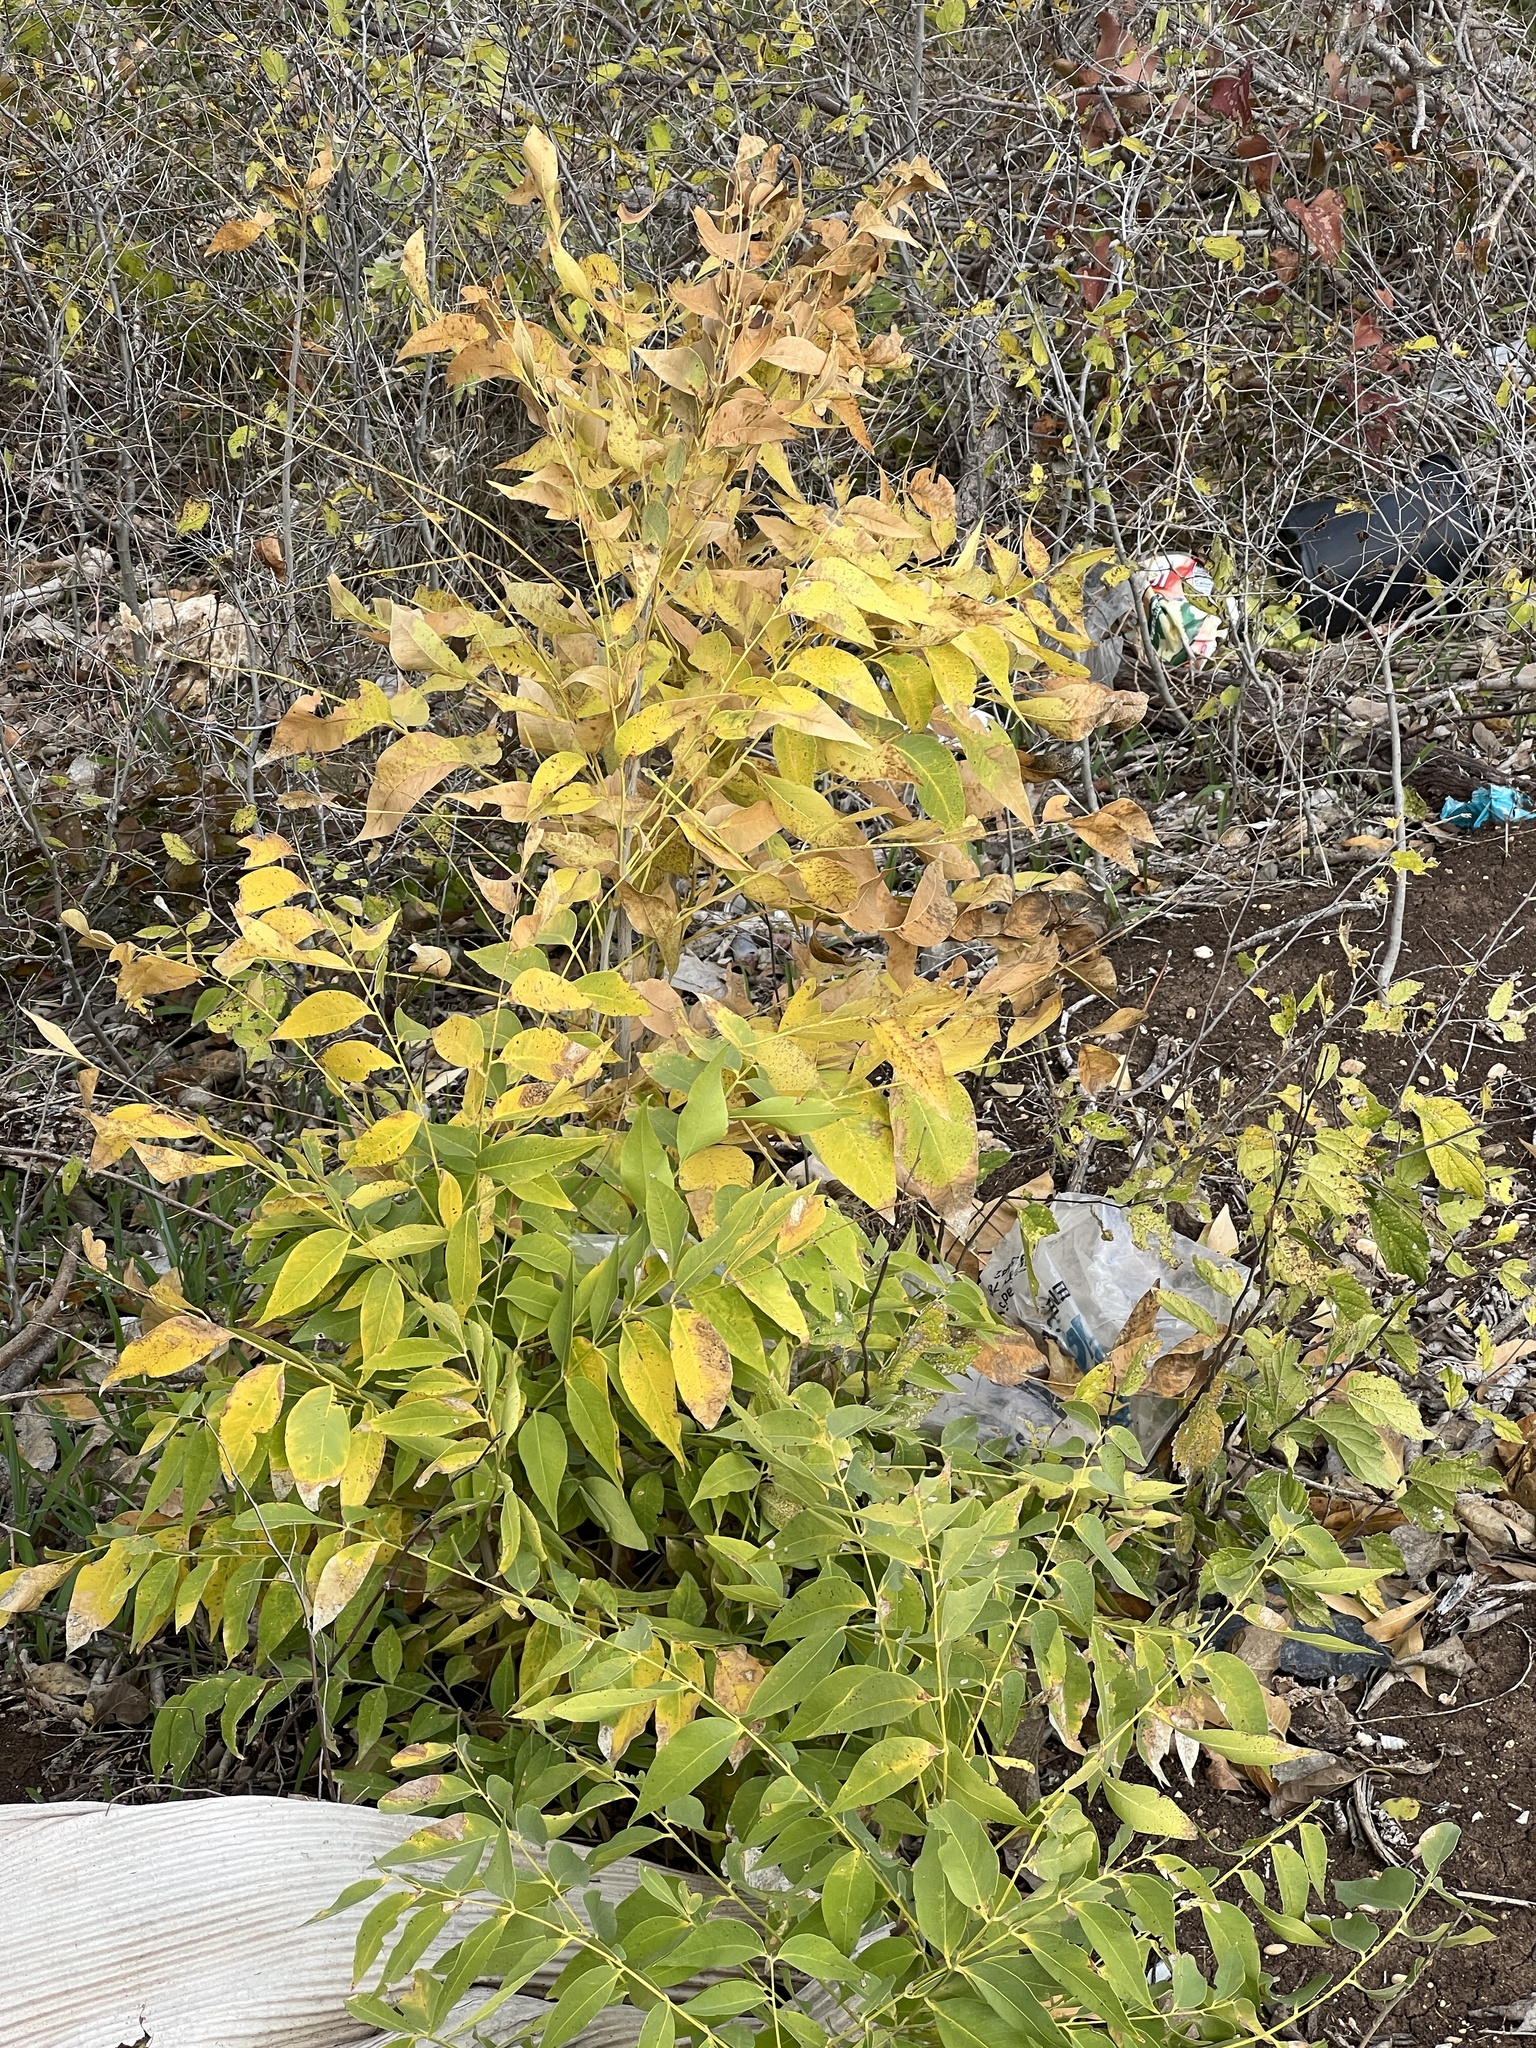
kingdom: Plantae
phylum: Tracheophyta
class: Magnoliopsida
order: Sapindales
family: Sapindaceae
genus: Sapindus
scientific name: Sapindus drummondii
